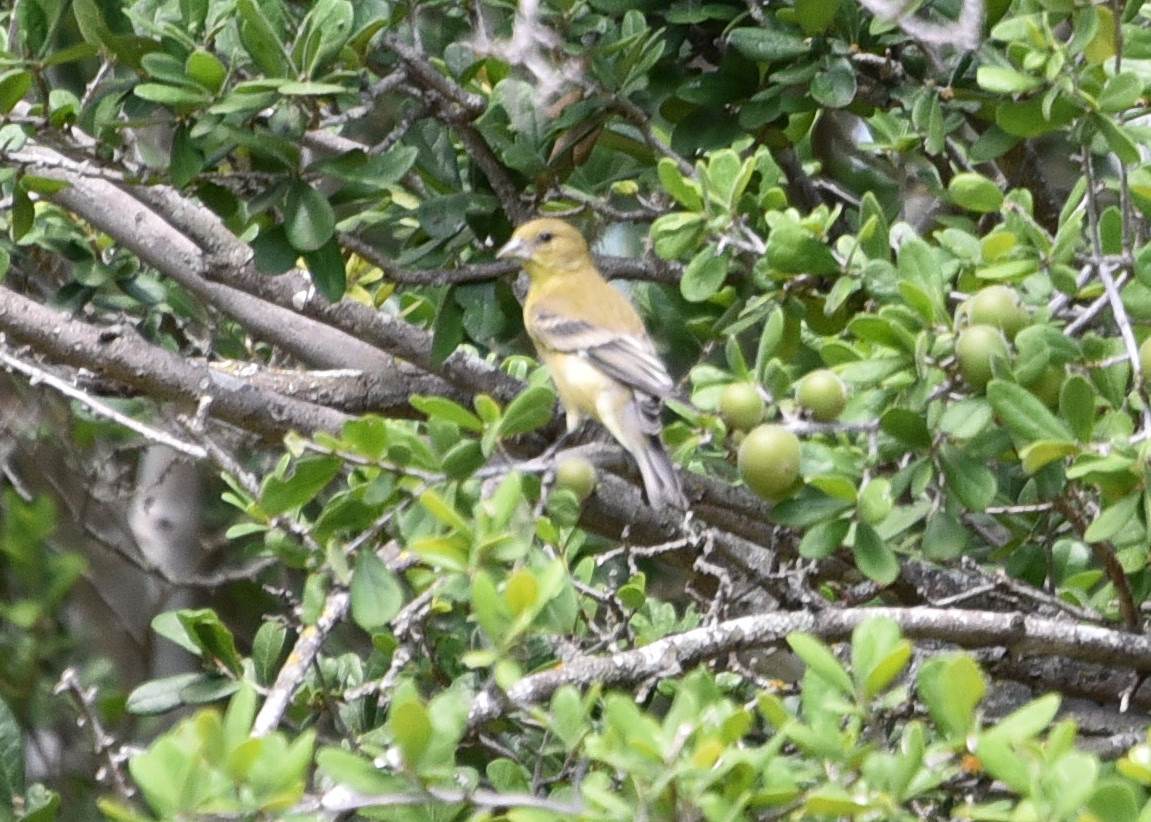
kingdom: Animalia
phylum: Chordata
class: Aves
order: Passeriformes
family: Fringillidae
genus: Spinus
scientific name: Spinus psaltria
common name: Lesser goldfinch
